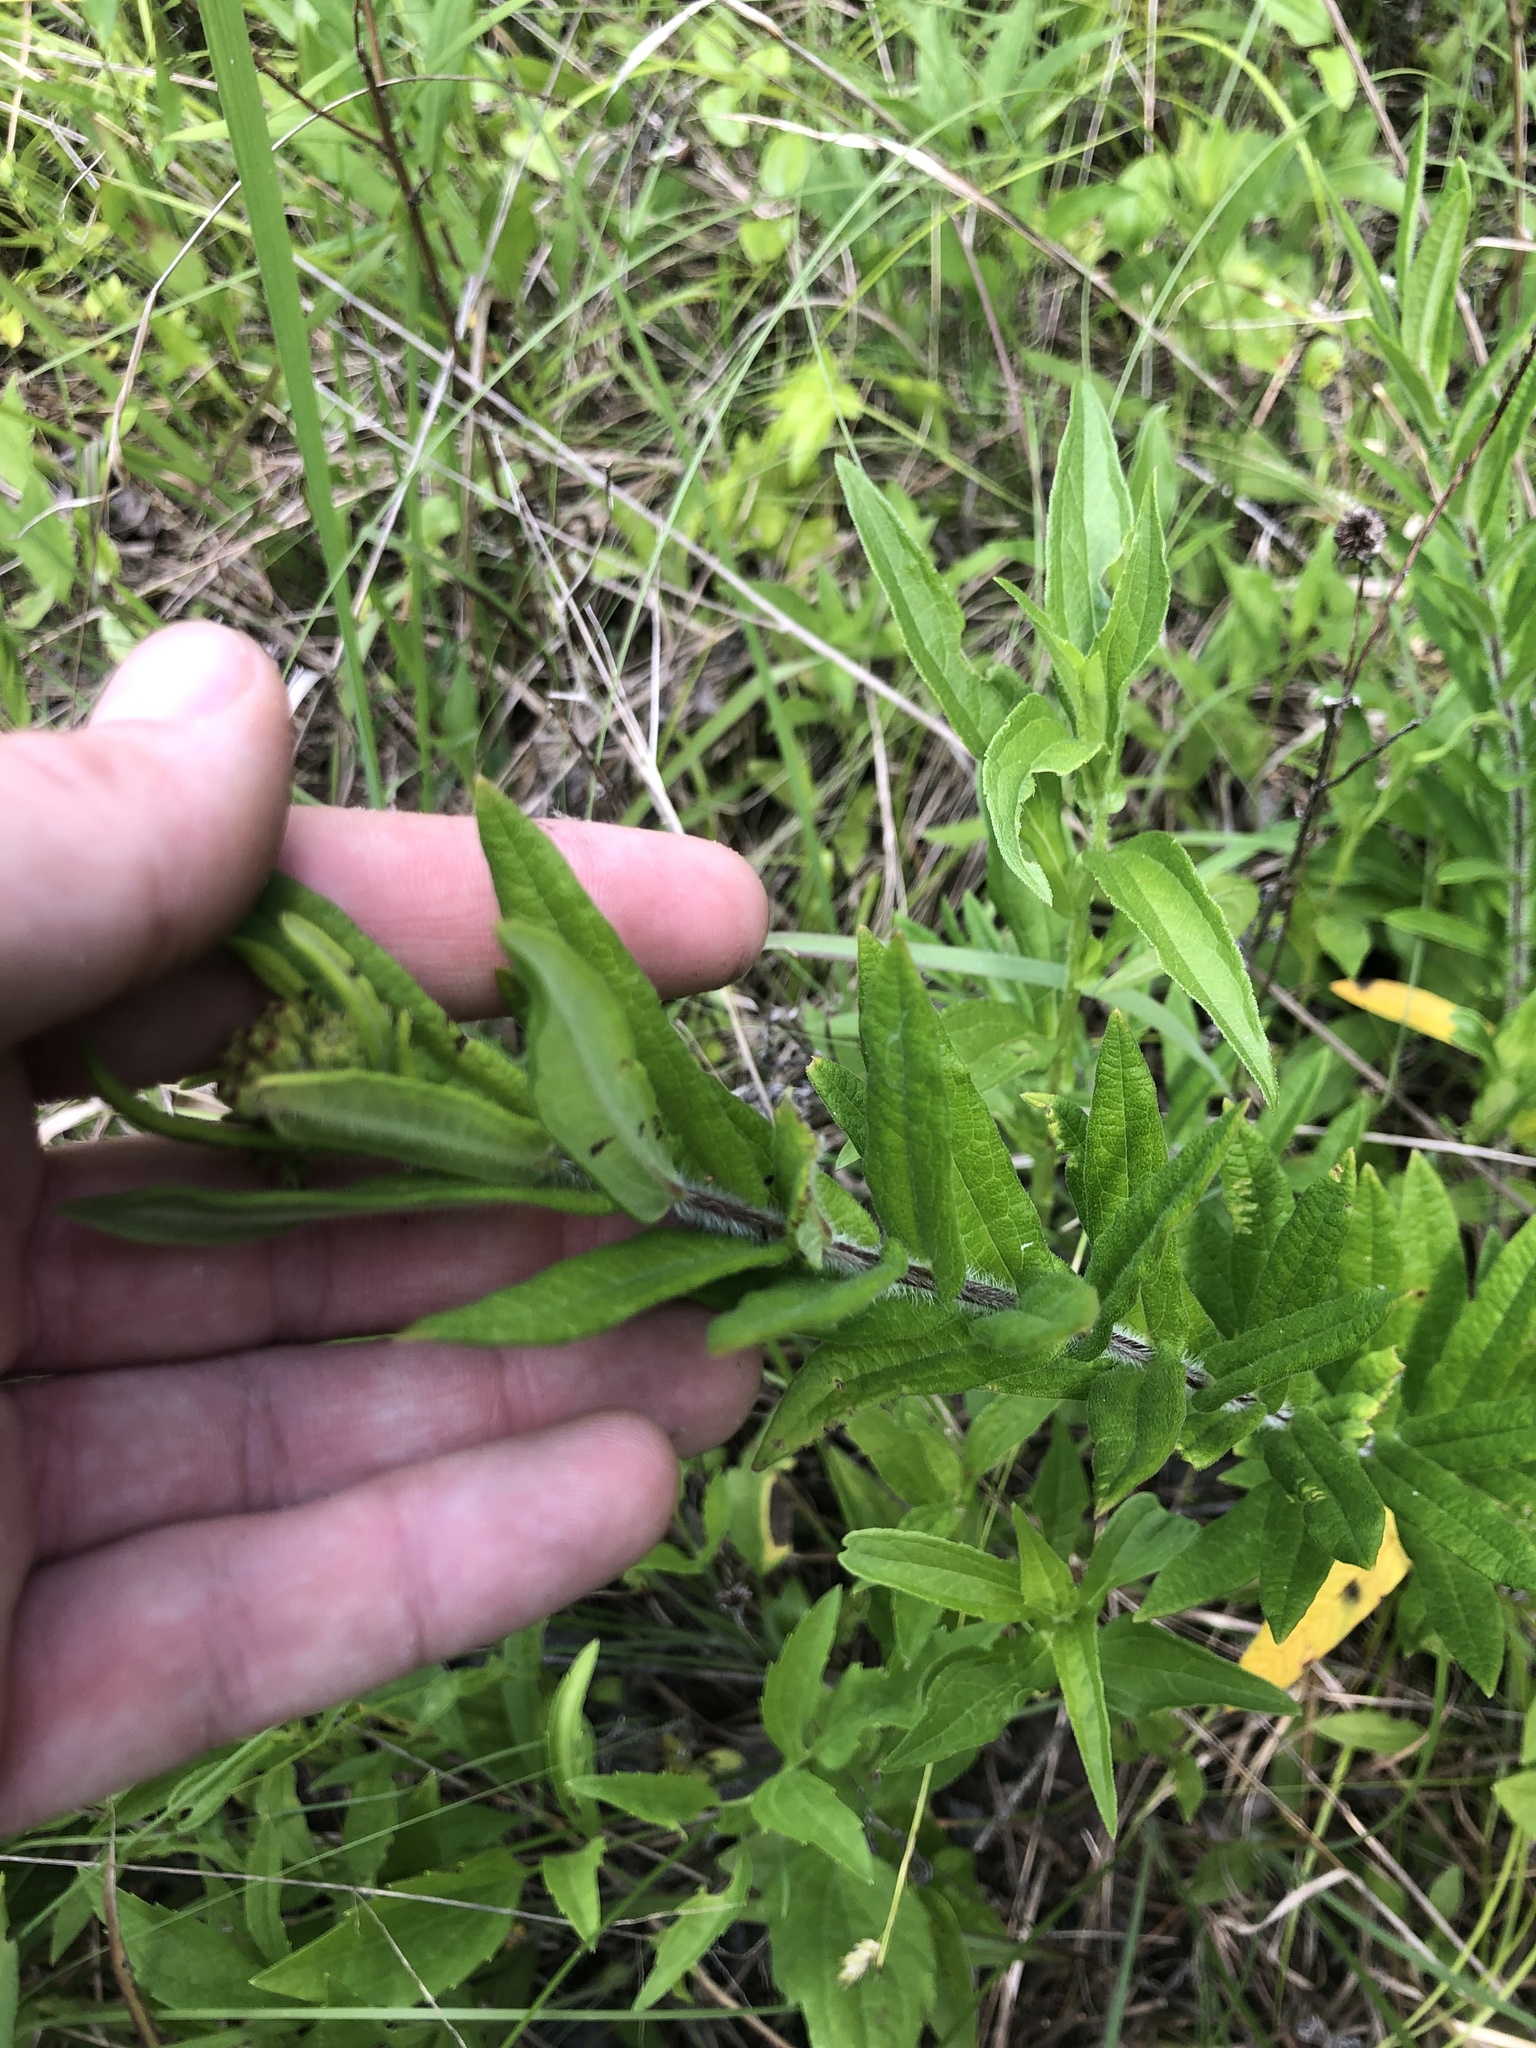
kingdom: Plantae
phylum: Tracheophyta
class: Magnoliopsida
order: Gentianales
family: Apocynaceae
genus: Asclepias
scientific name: Asclepias tuberosa
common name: Butterfly milkweed
